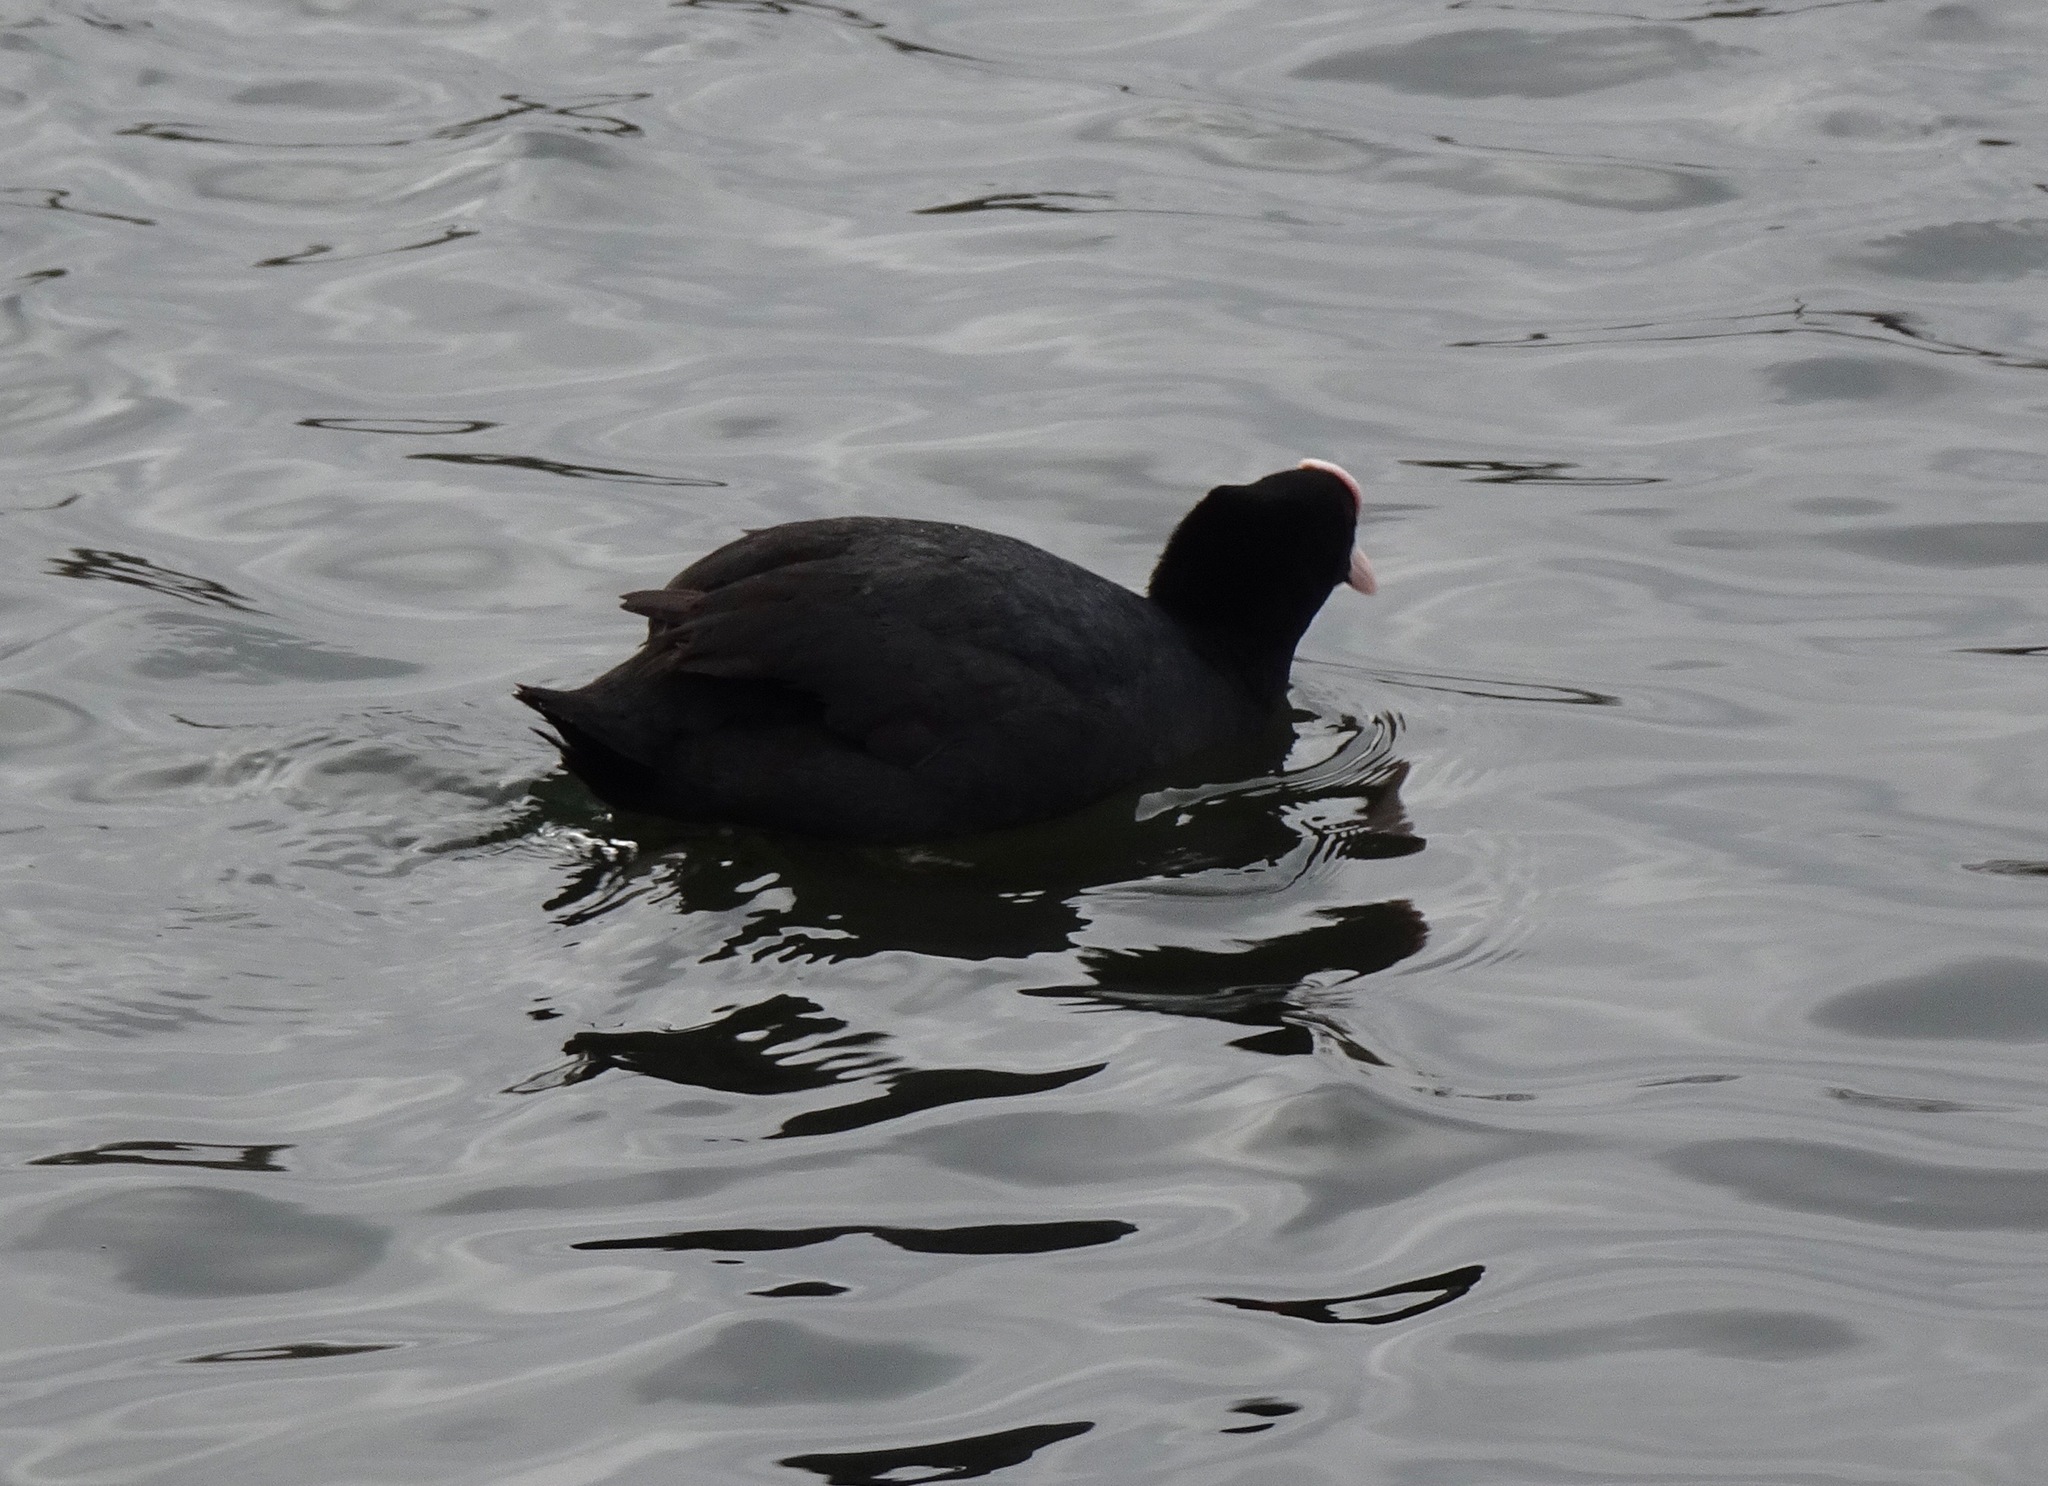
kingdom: Animalia
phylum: Chordata
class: Aves
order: Gruiformes
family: Rallidae
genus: Fulica
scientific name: Fulica atra
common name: Eurasian coot
